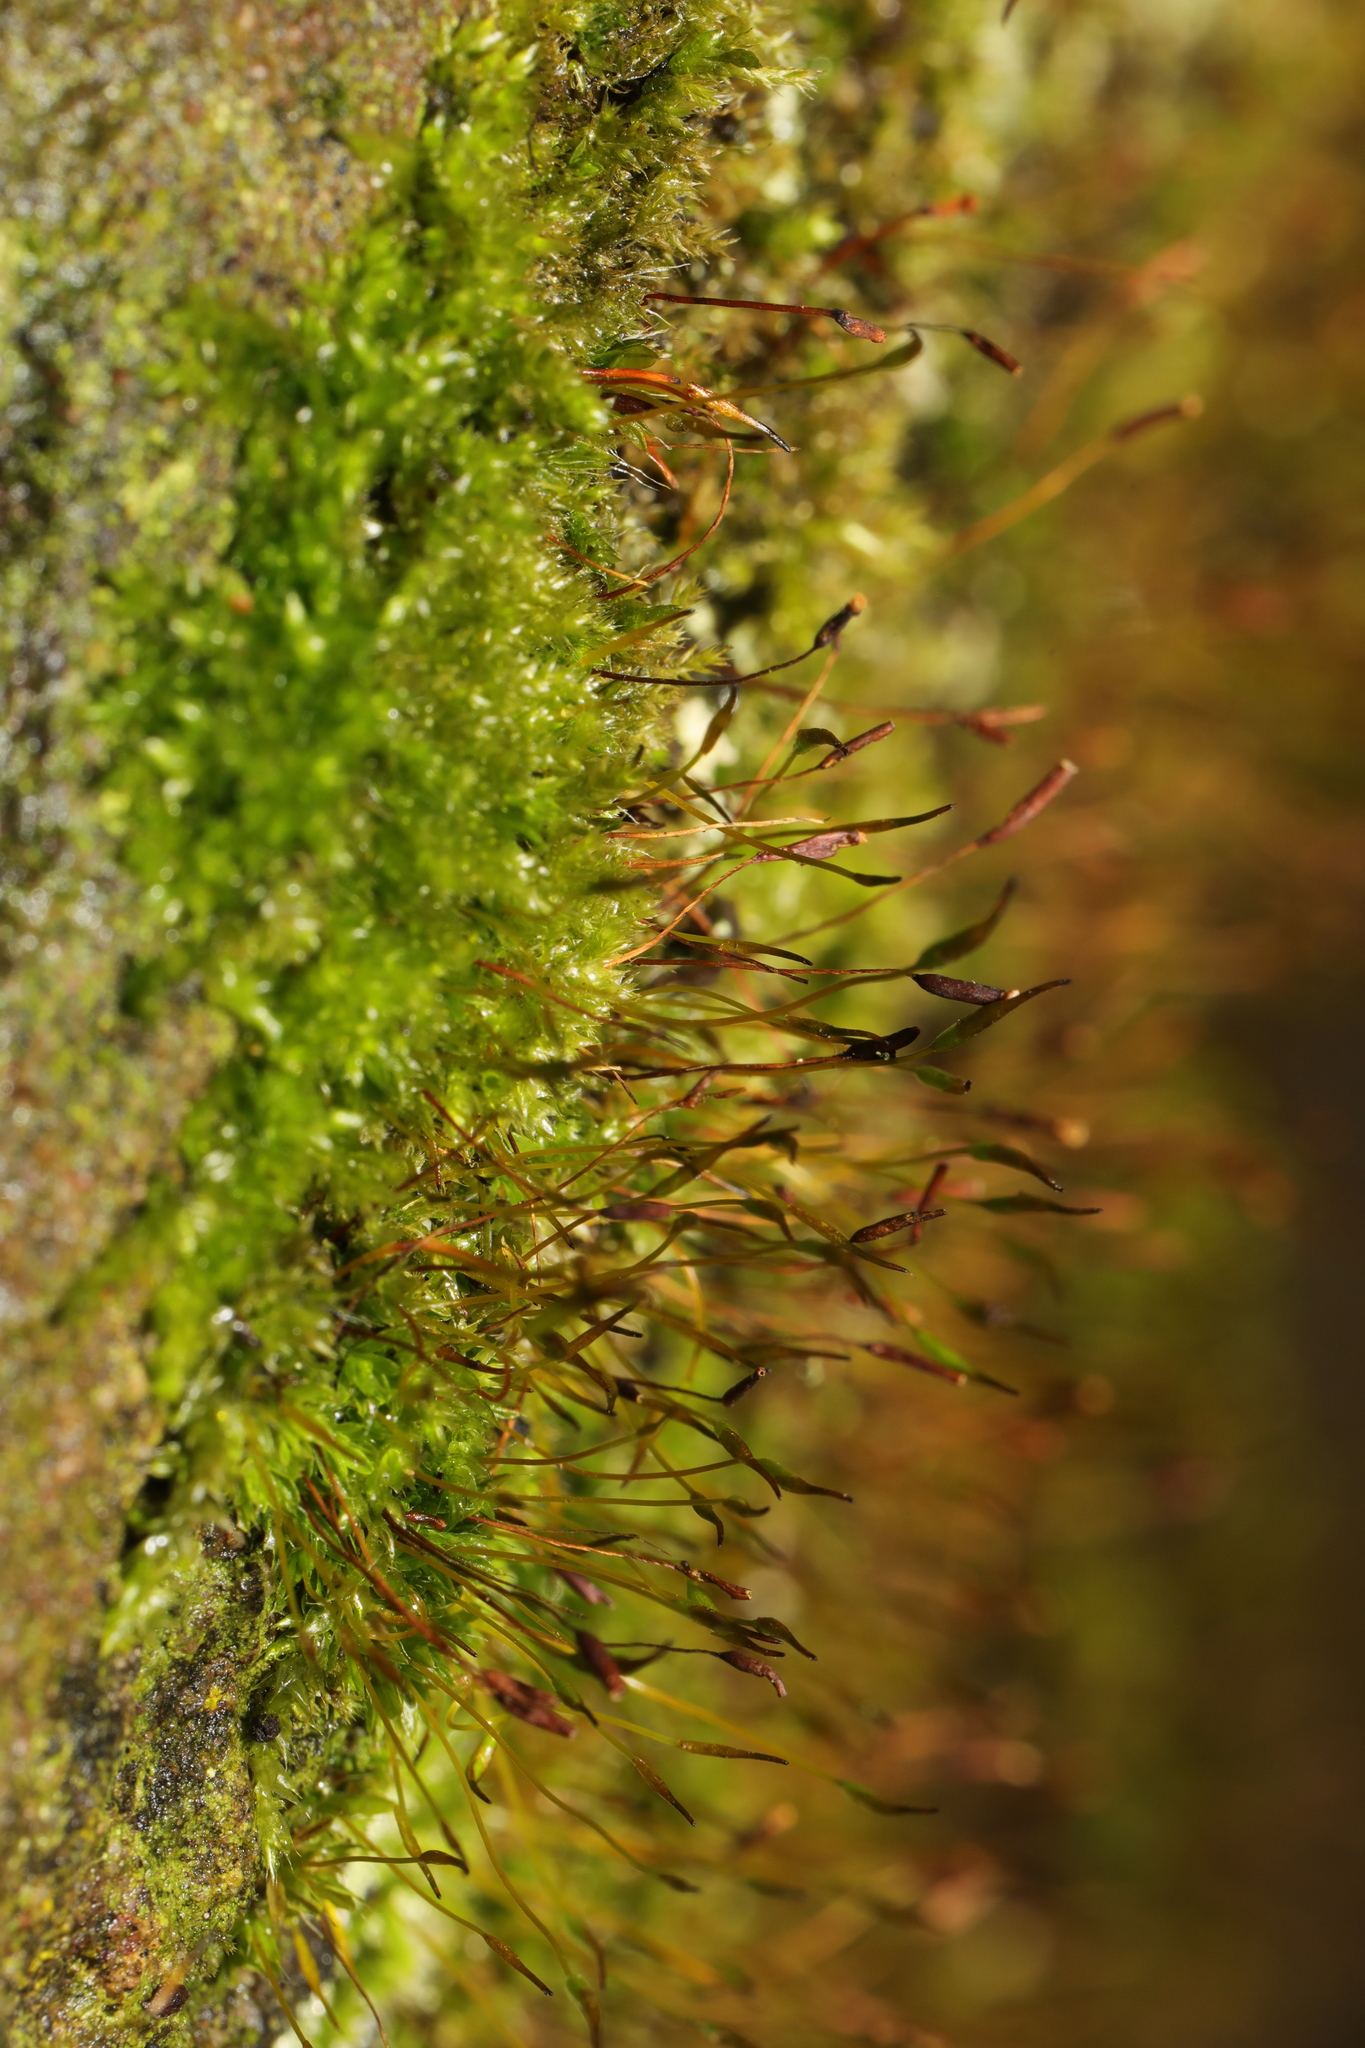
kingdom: Plantae
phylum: Bryophyta
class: Bryopsida
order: Pottiales
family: Pottiaceae
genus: Tortula
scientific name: Tortula muralis
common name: Wall screw-moss
